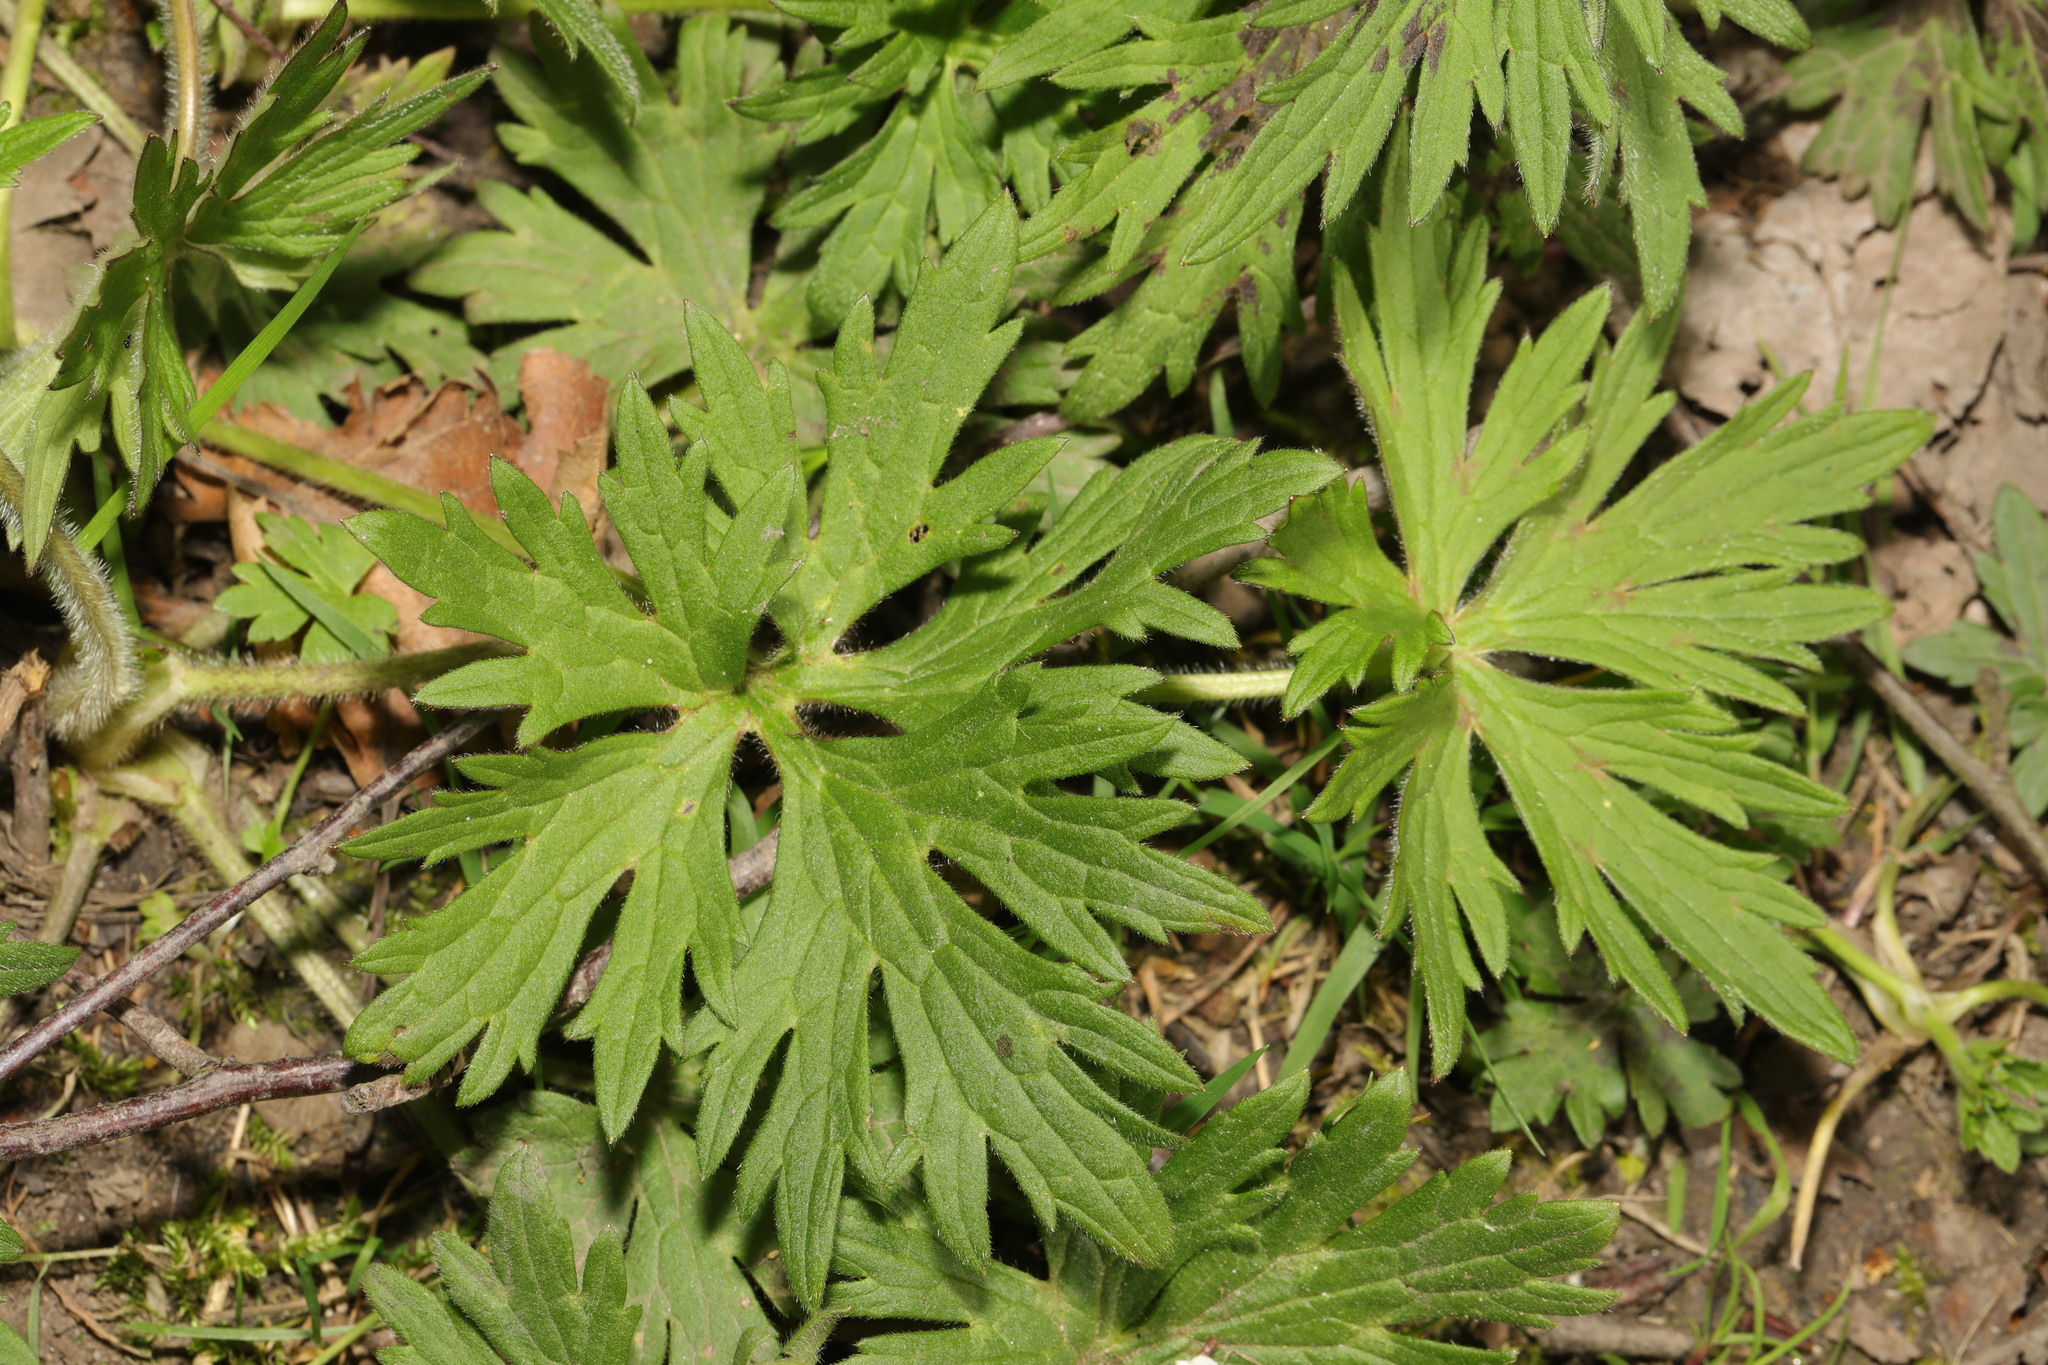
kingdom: Plantae
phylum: Tracheophyta
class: Magnoliopsida
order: Ranunculales
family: Ranunculaceae
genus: Ranunculus
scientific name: Ranunculus acris
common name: Meadow buttercup
